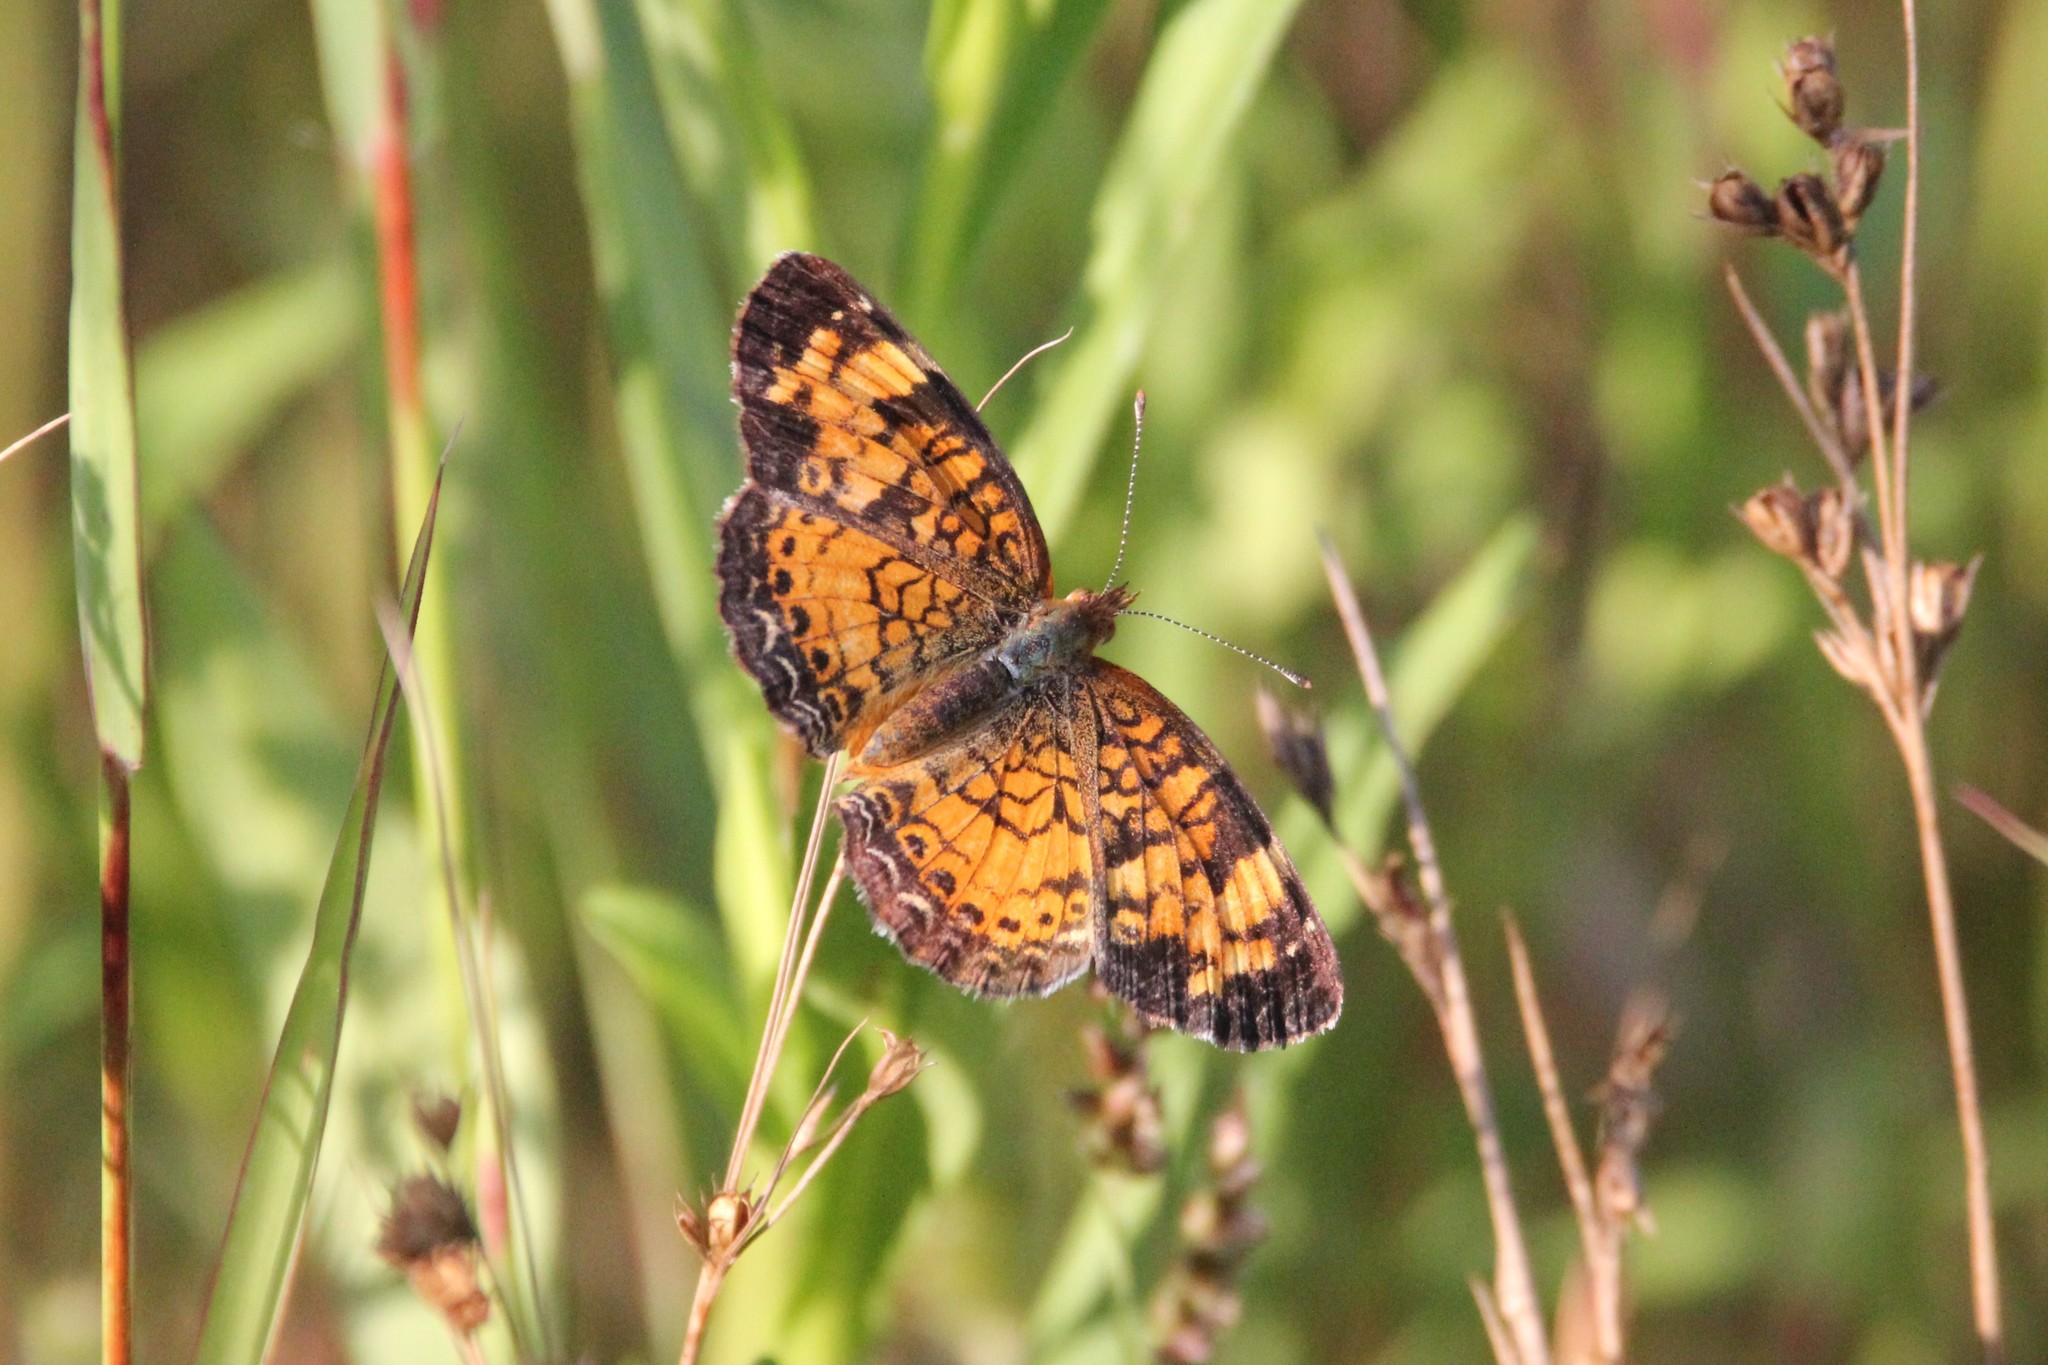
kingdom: Animalia
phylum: Arthropoda
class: Insecta
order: Lepidoptera
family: Nymphalidae
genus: Phyciodes
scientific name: Phyciodes tharos
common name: Pearl crescent
